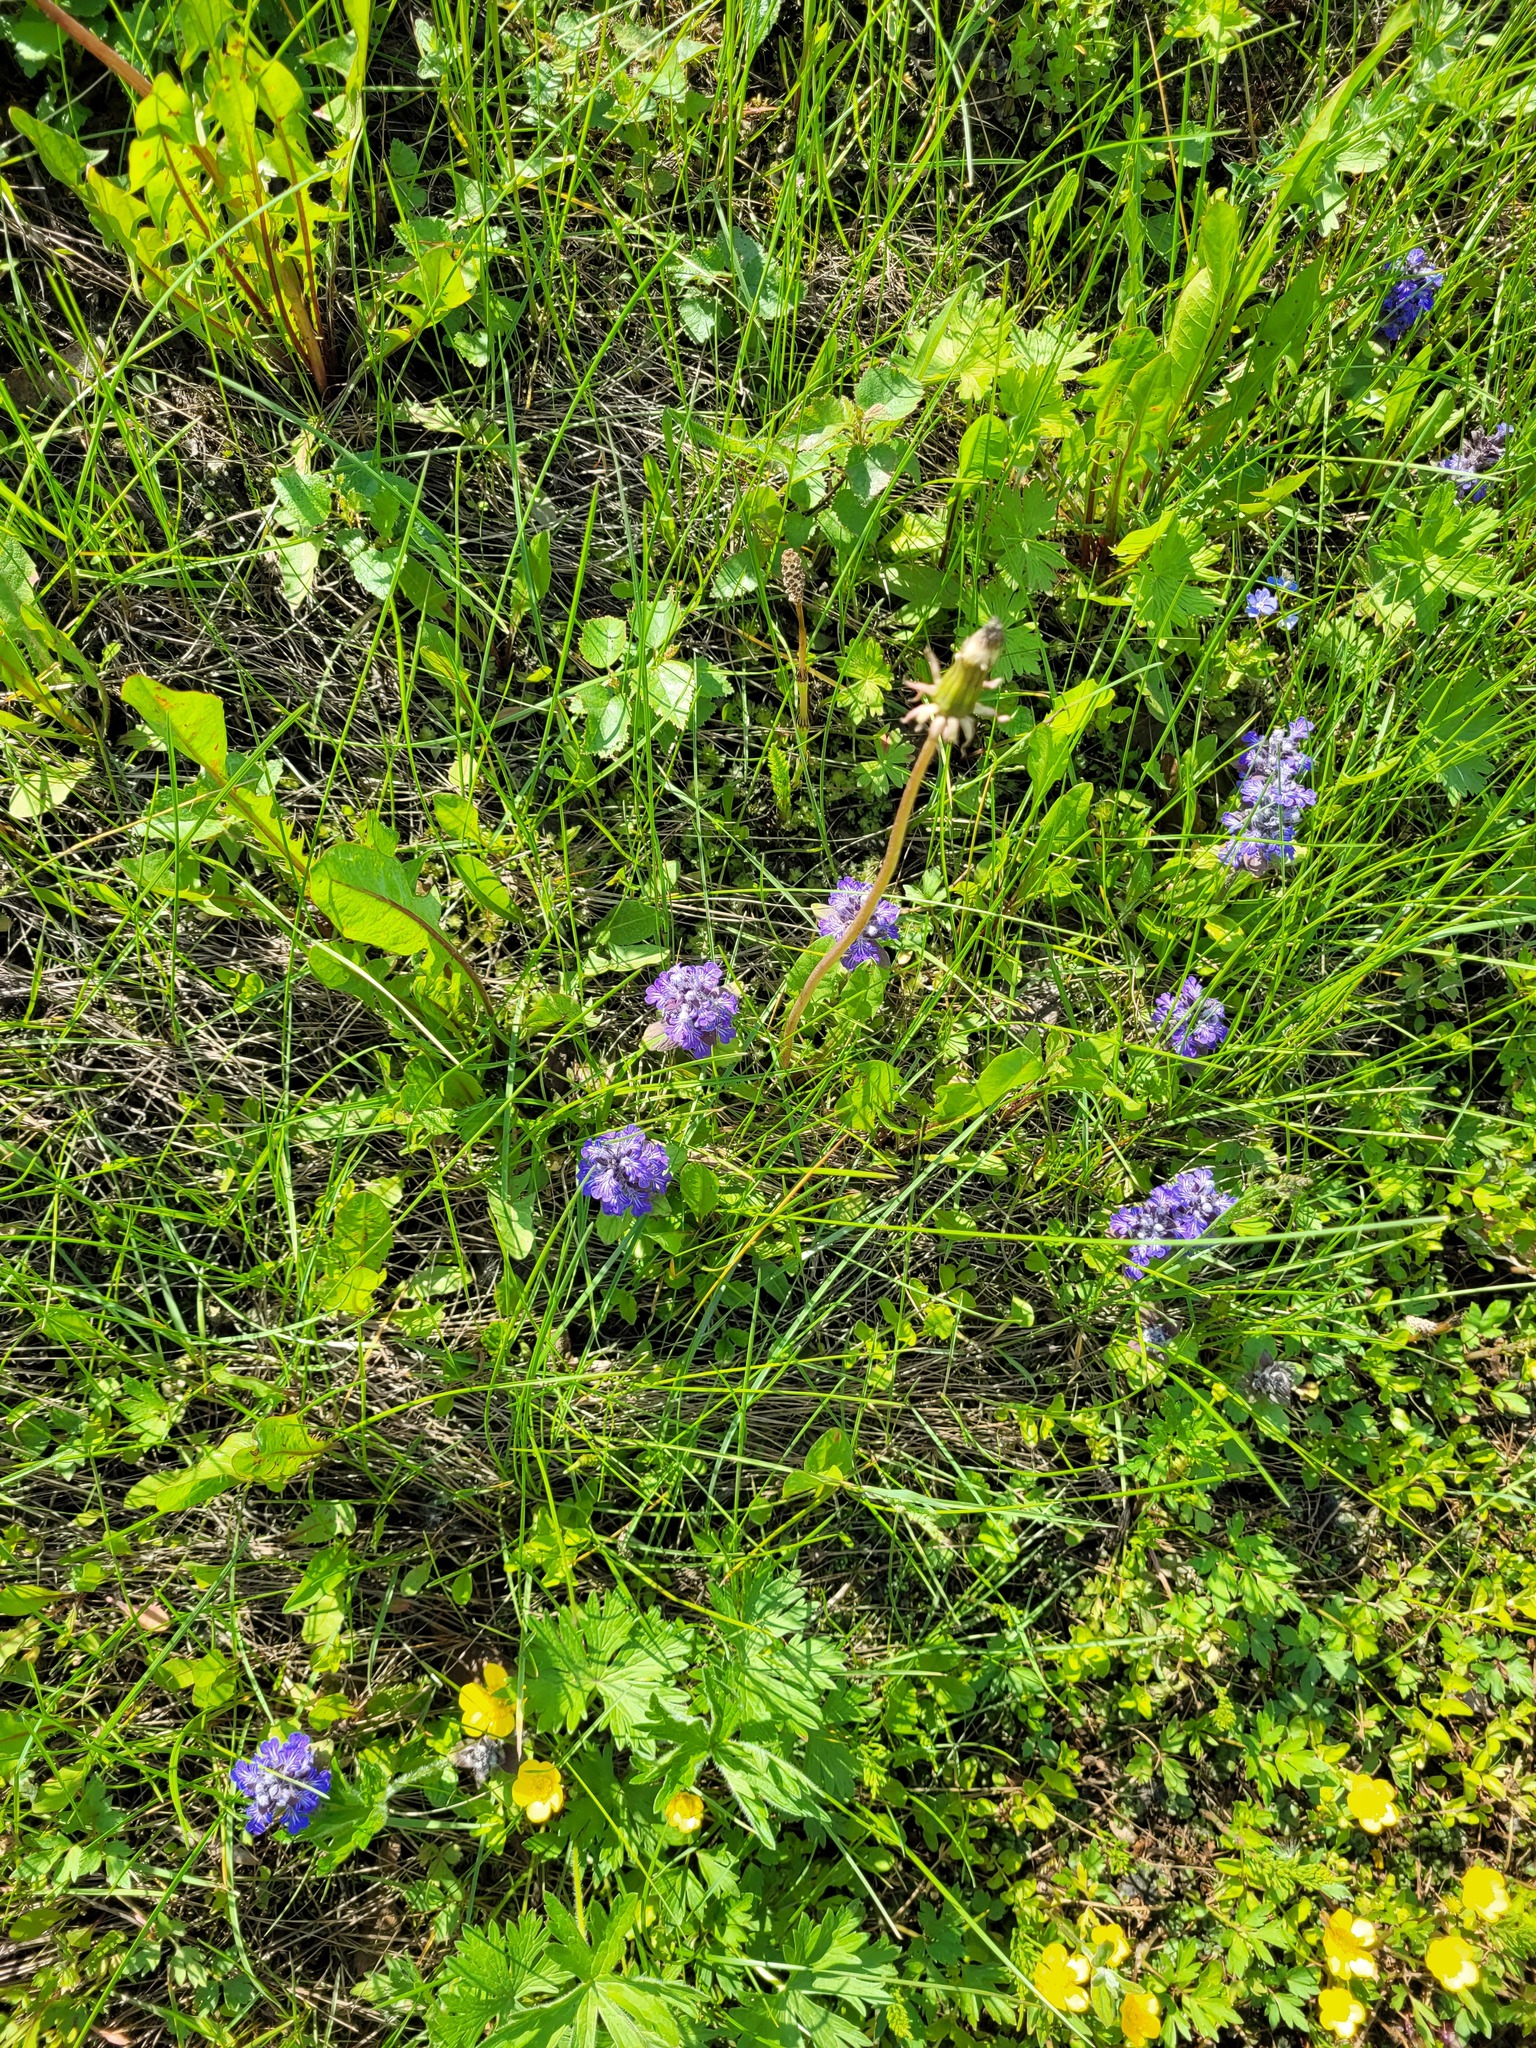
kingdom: Plantae
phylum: Tracheophyta
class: Magnoliopsida
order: Lamiales
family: Lamiaceae
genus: Ajuga
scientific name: Ajuga reptans
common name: Bugle
